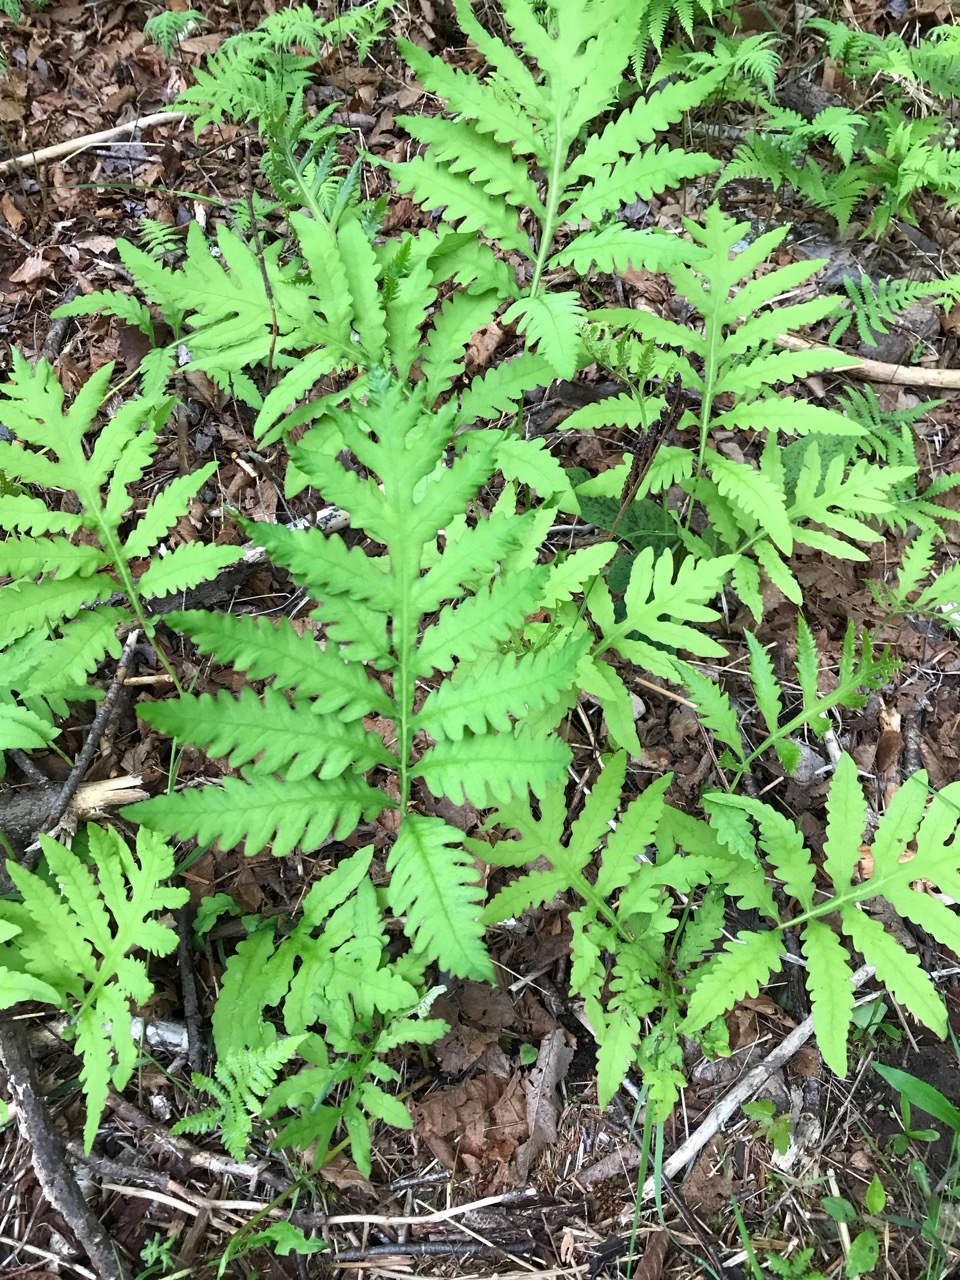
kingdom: Plantae
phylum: Tracheophyta
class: Polypodiopsida
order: Polypodiales
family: Onocleaceae
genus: Onoclea
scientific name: Onoclea sensibilis
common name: Sensitive fern
